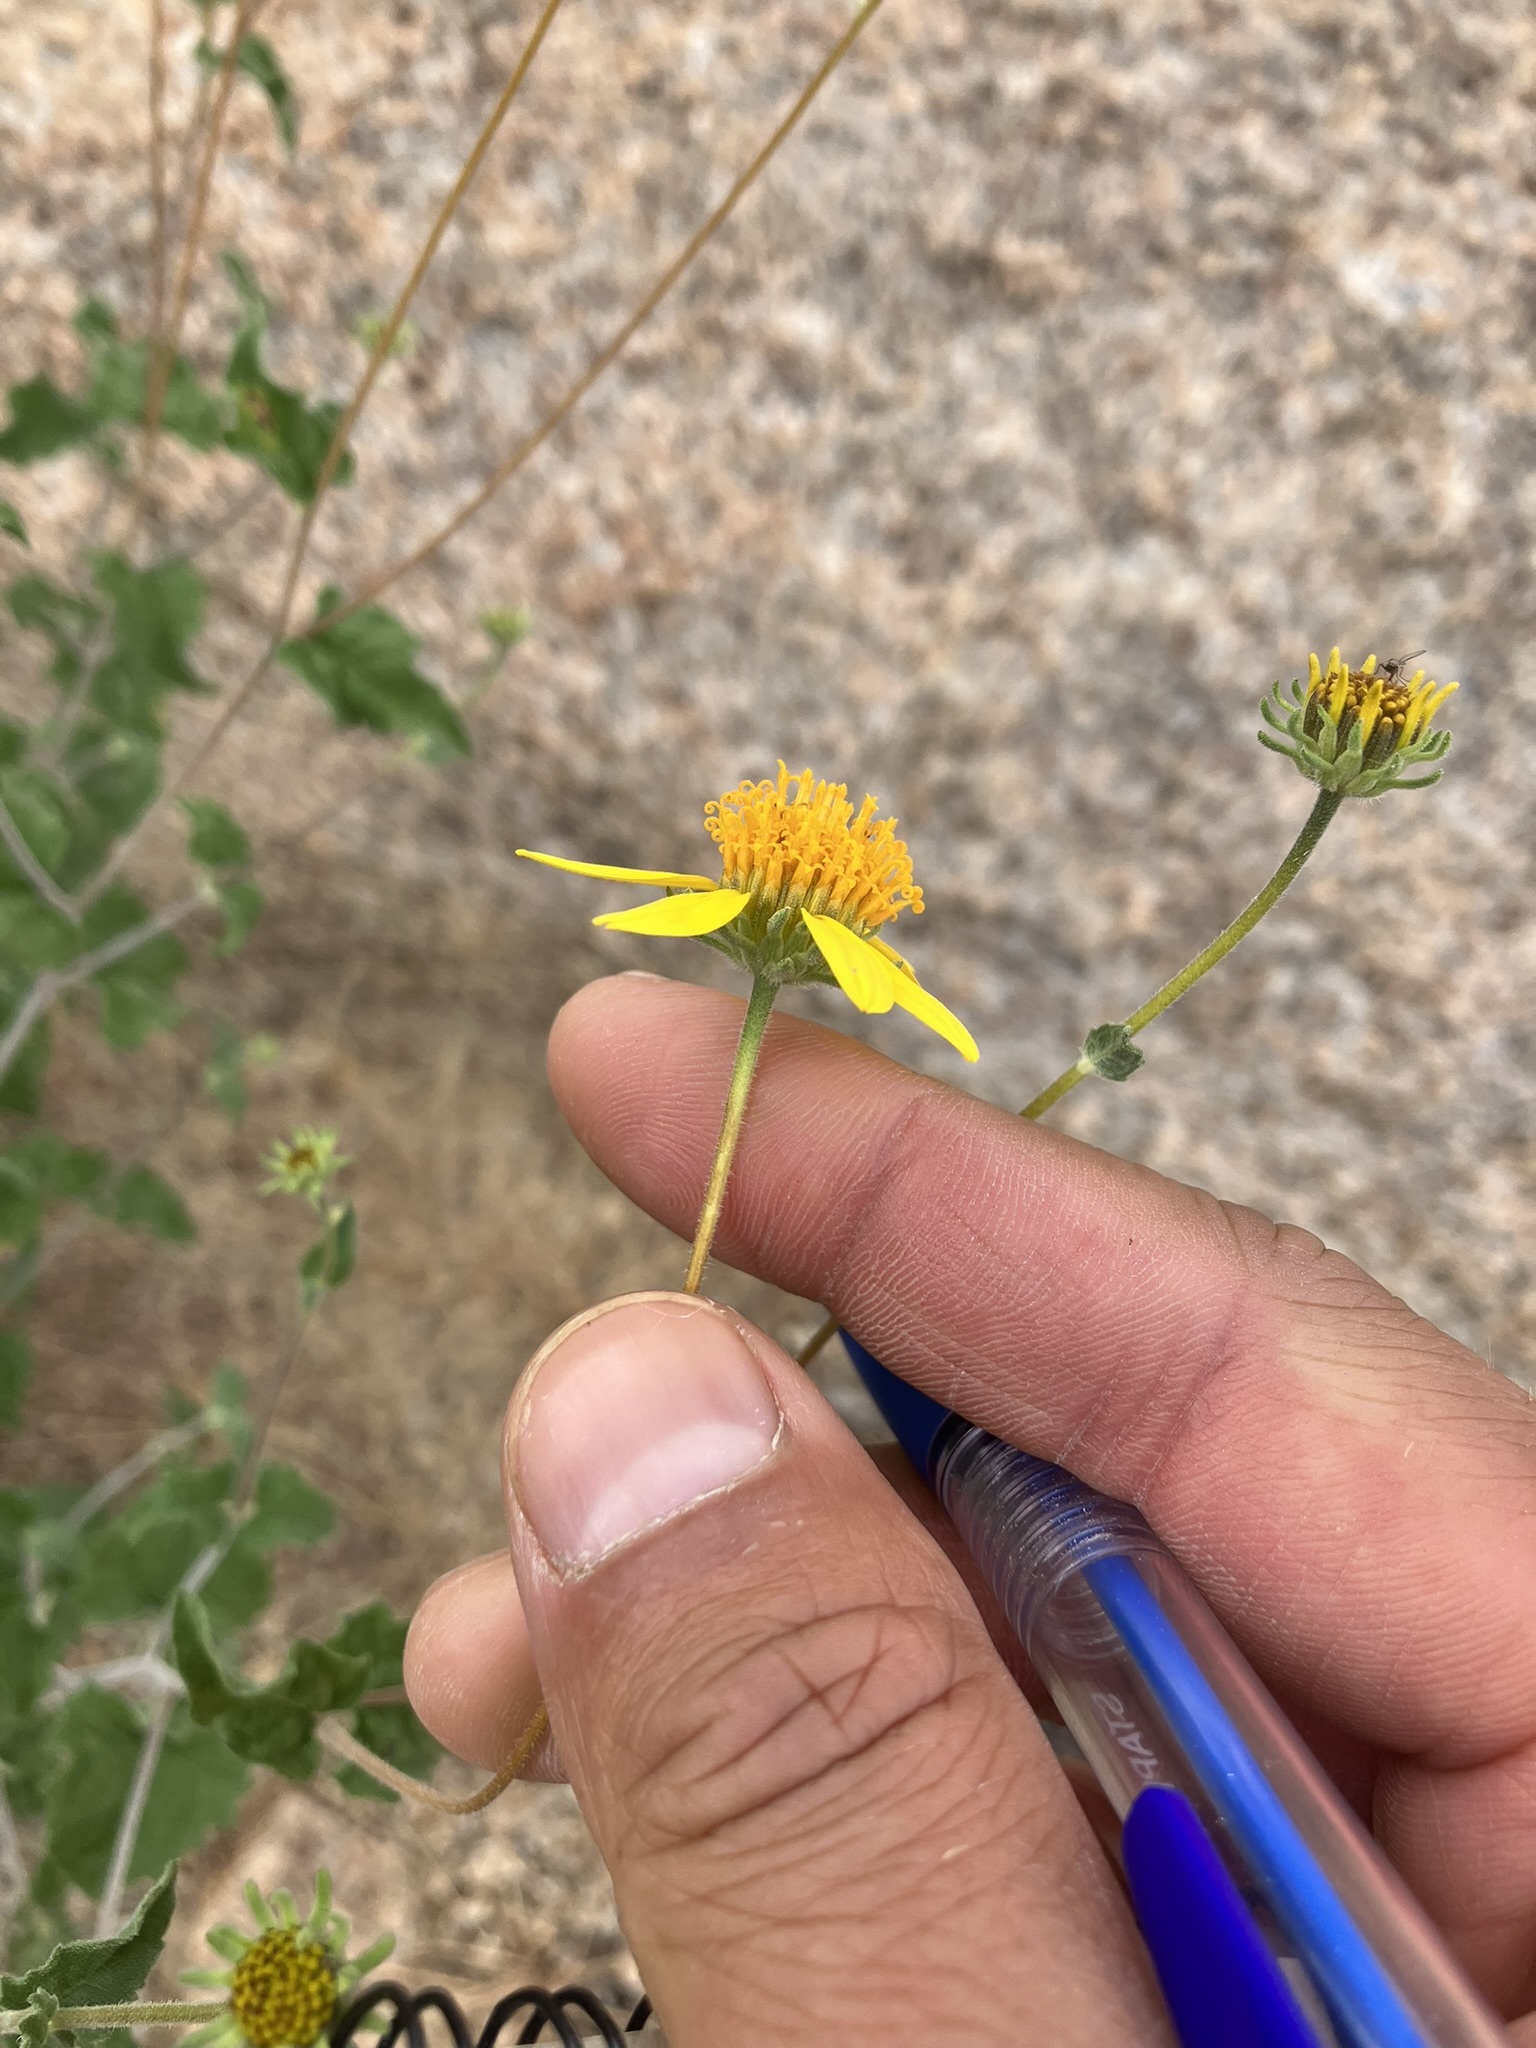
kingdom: Plantae
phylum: Tracheophyta
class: Magnoliopsida
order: Asterales
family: Asteraceae
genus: Bahiopsis
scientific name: Bahiopsis parishii
